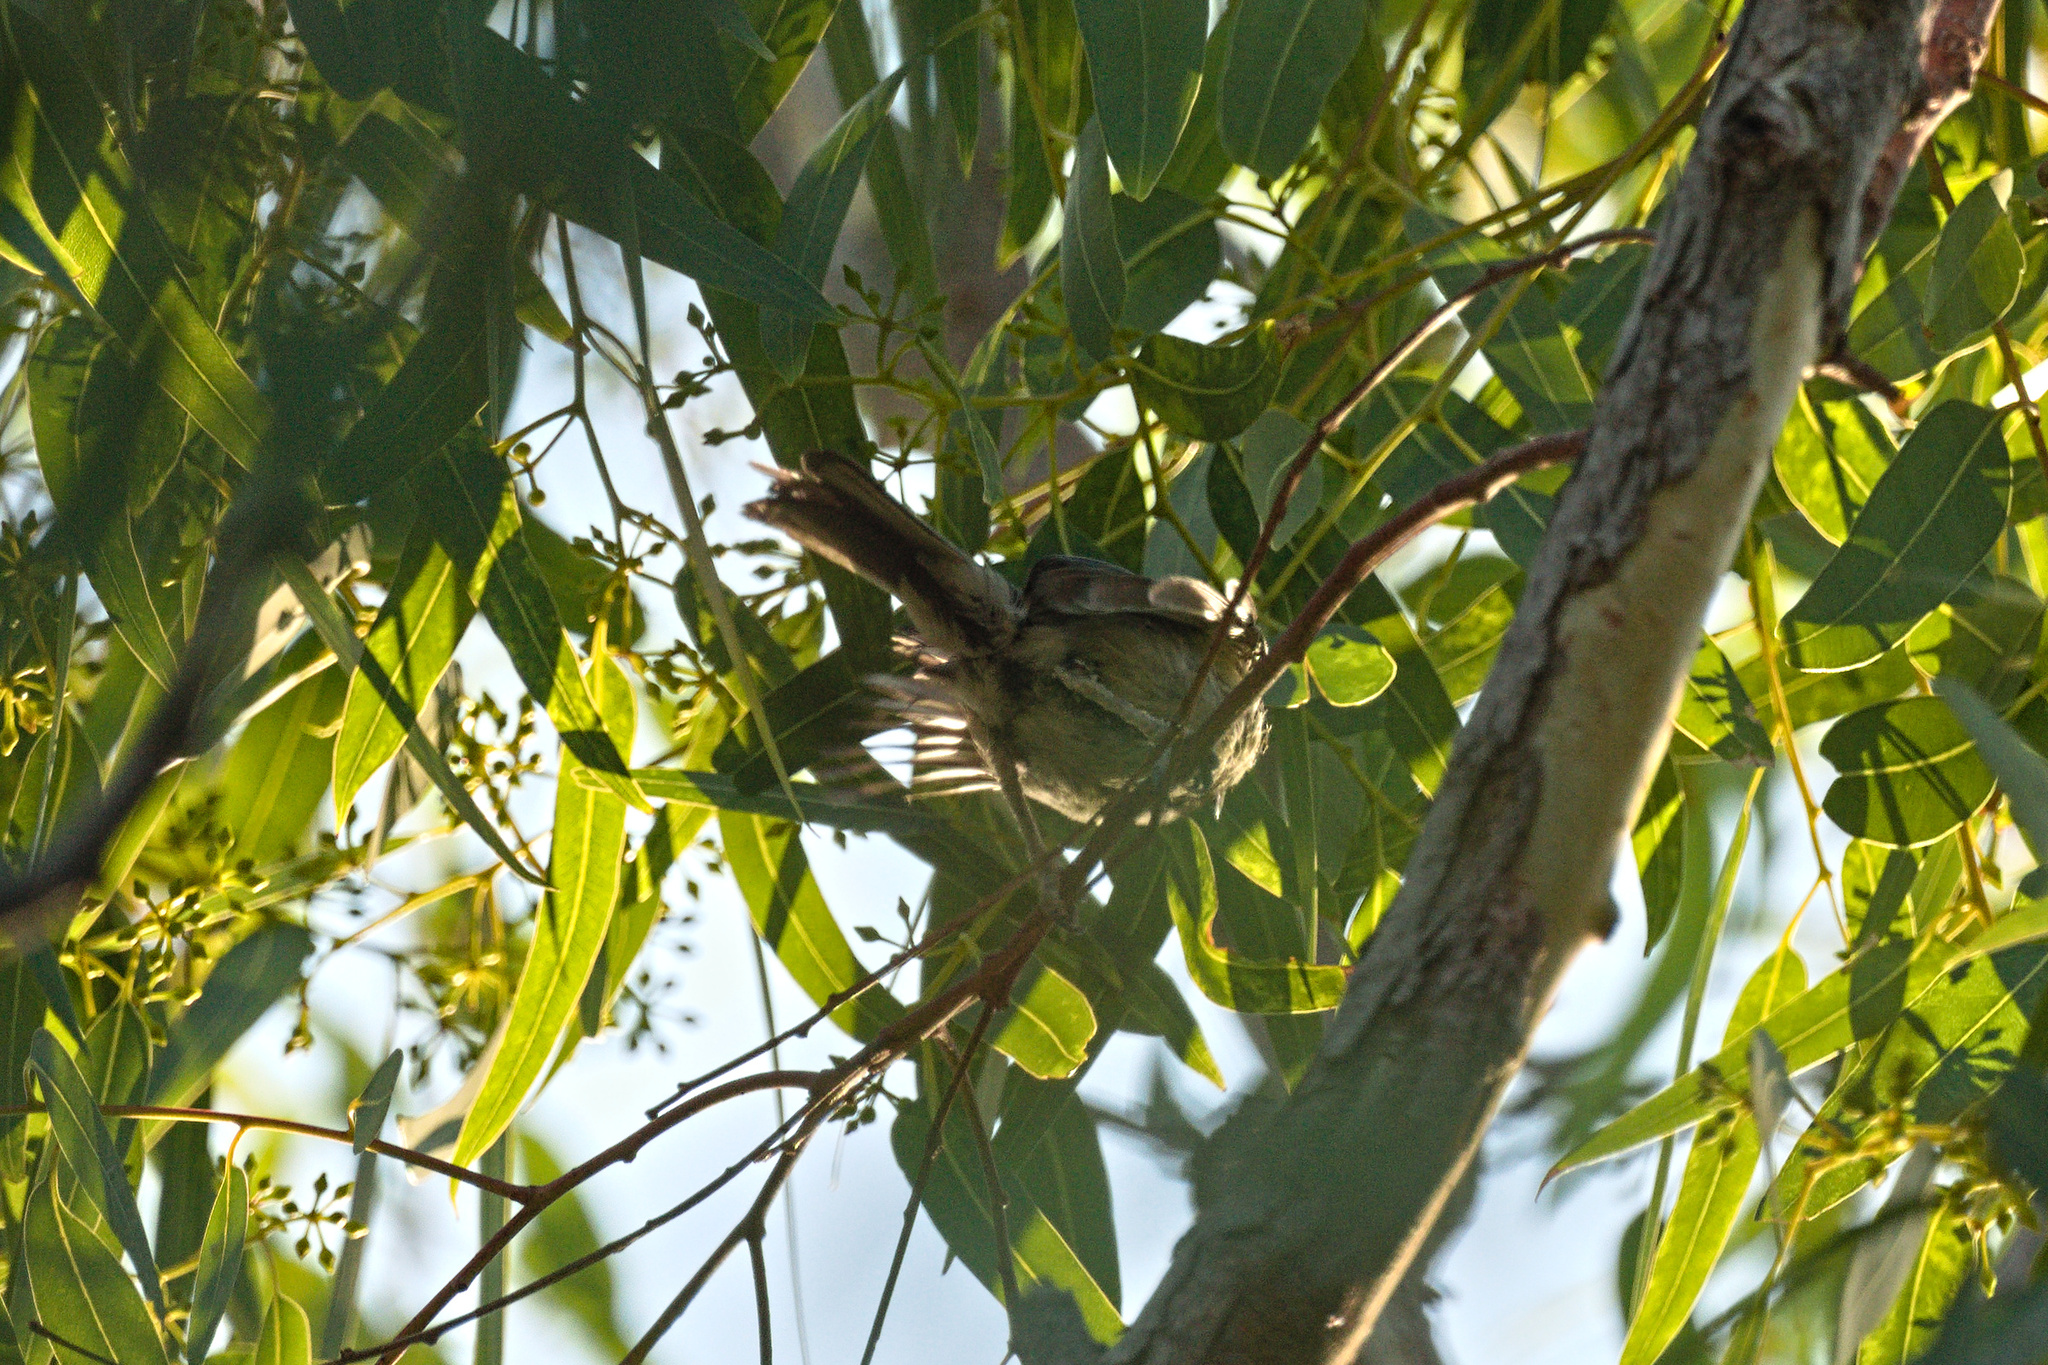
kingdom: Animalia
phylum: Chordata
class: Aves
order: Passeriformes
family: Paridae
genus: Parus
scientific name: Parus major
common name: Great tit
